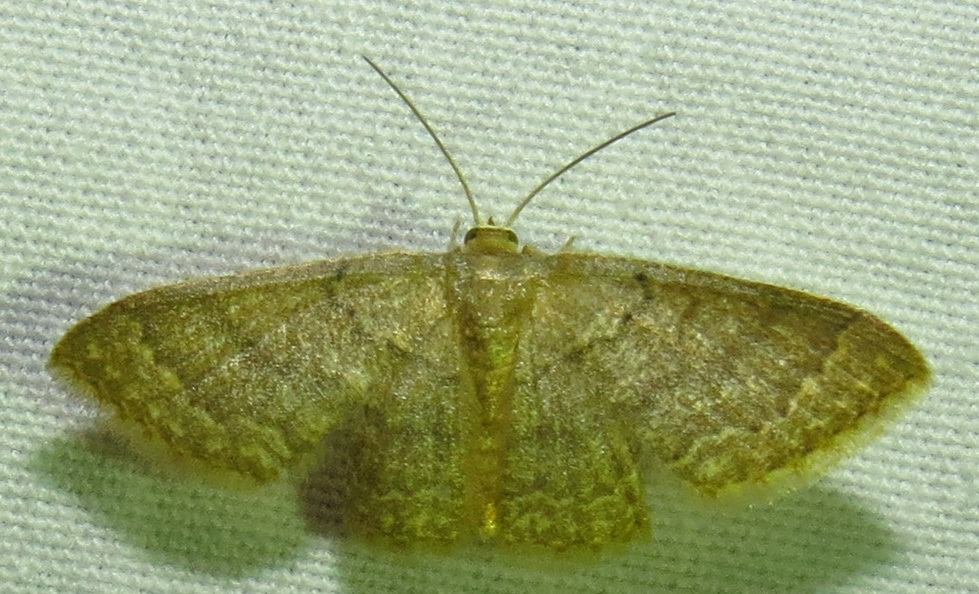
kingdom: Animalia
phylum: Arthropoda
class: Insecta
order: Lepidoptera
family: Geometridae
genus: Pleuroprucha
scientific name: Pleuroprucha insulsaria
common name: Common tan wave
